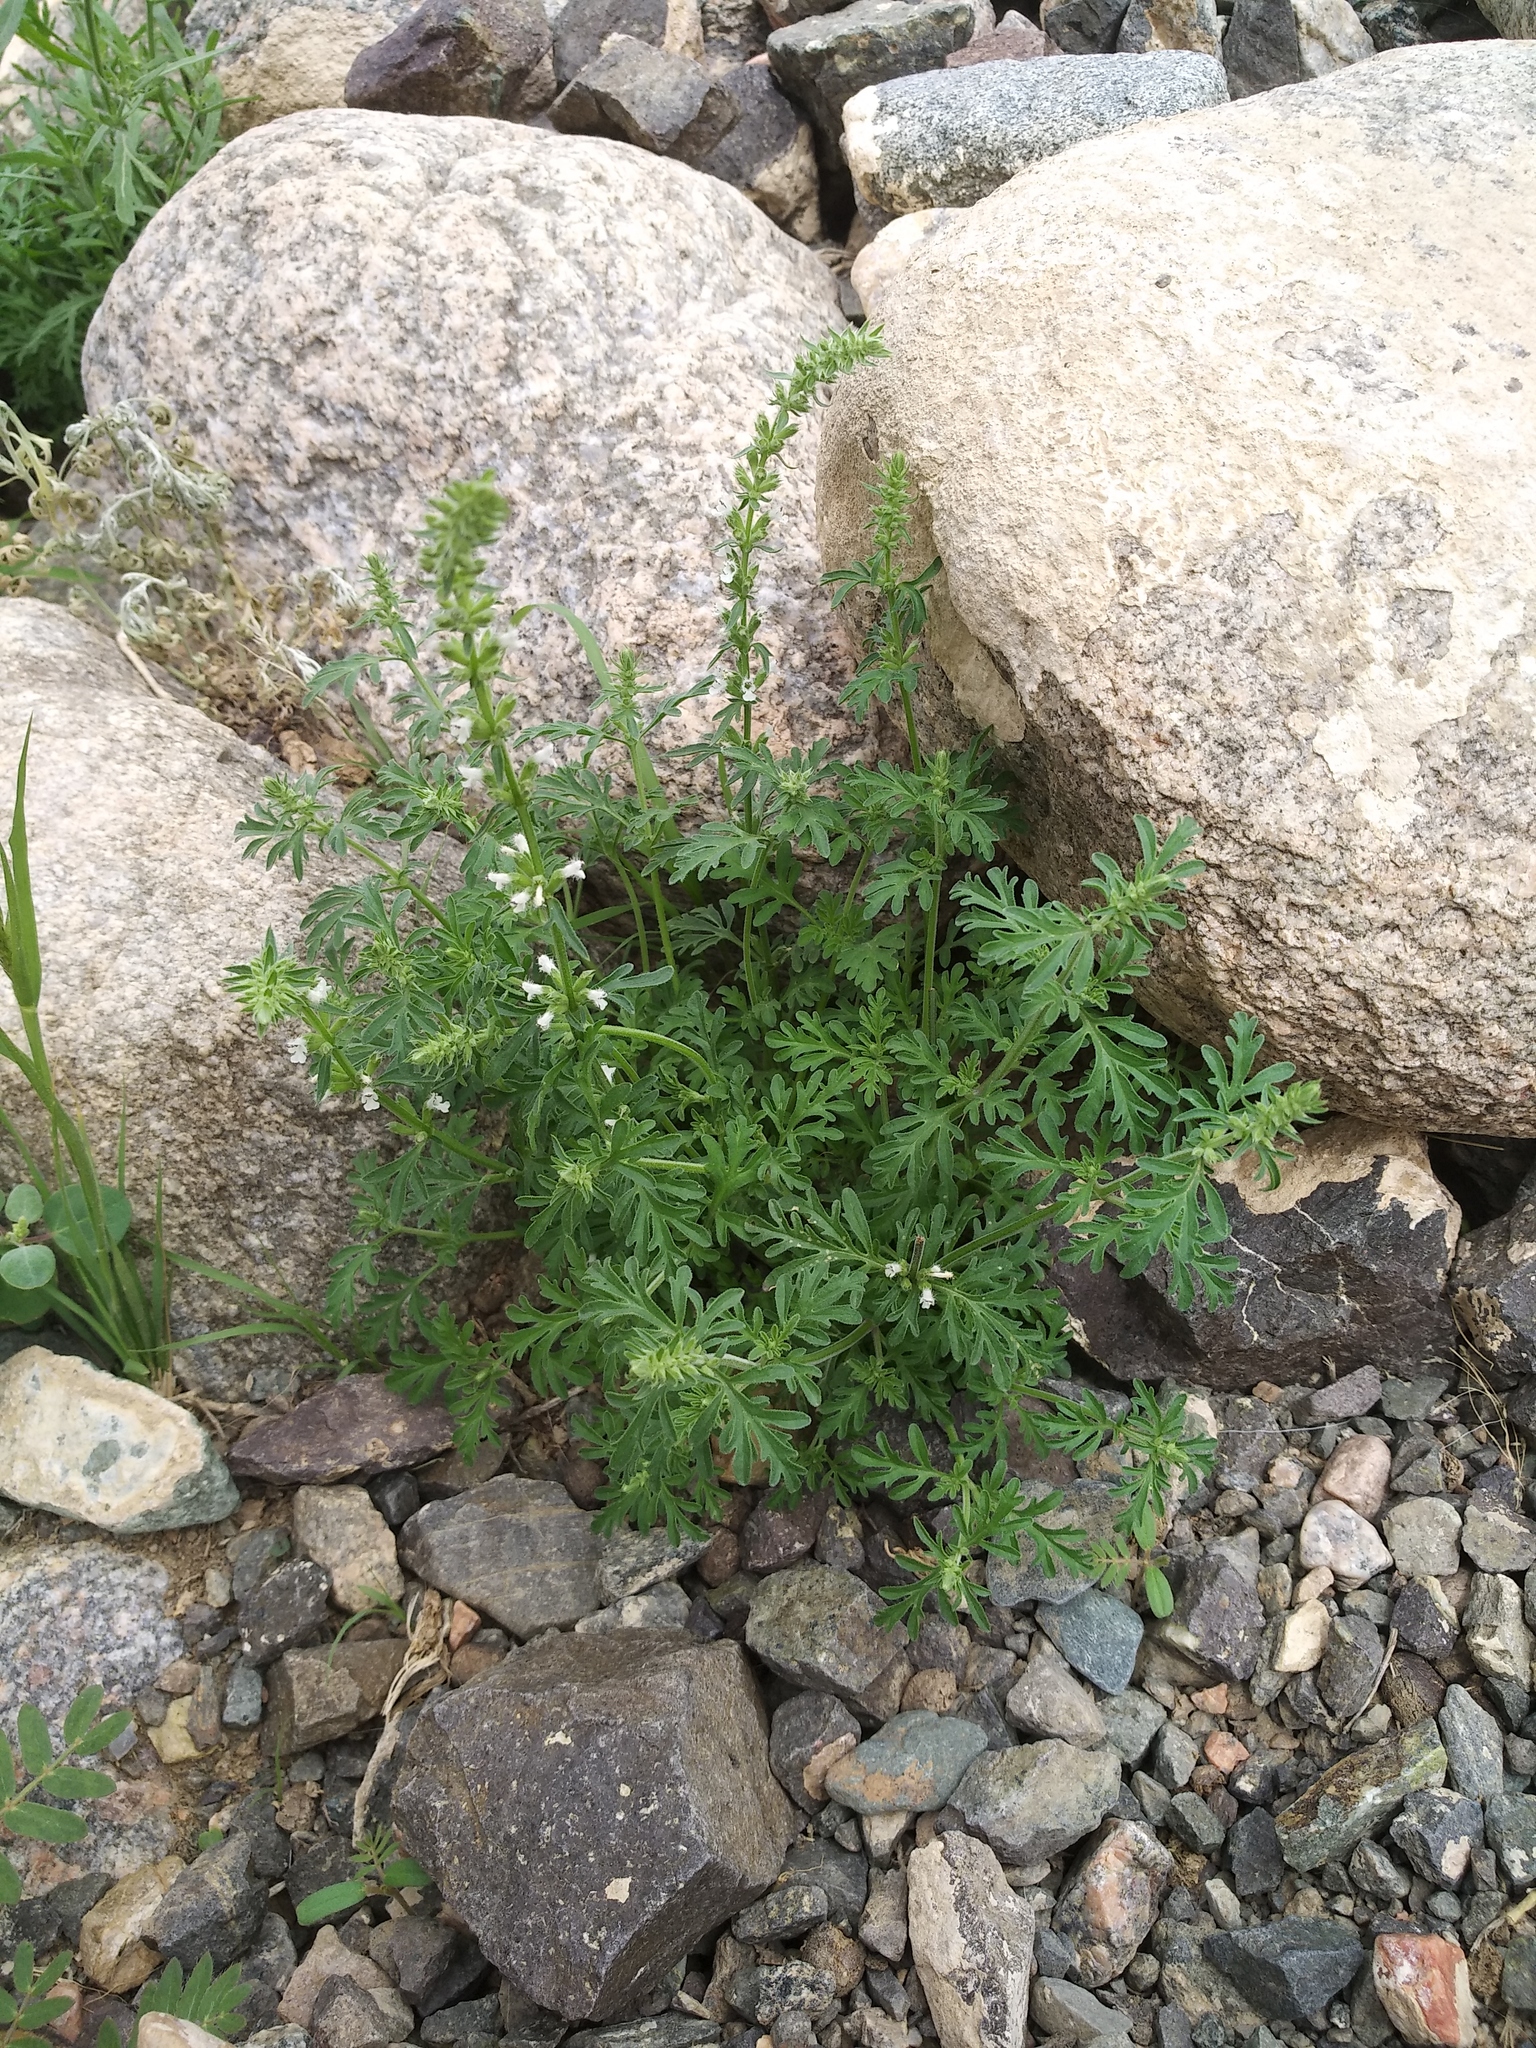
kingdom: Plantae
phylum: Tracheophyta
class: Magnoliopsida
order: Lamiales
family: Lamiaceae
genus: Nepeta
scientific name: Nepeta annua
